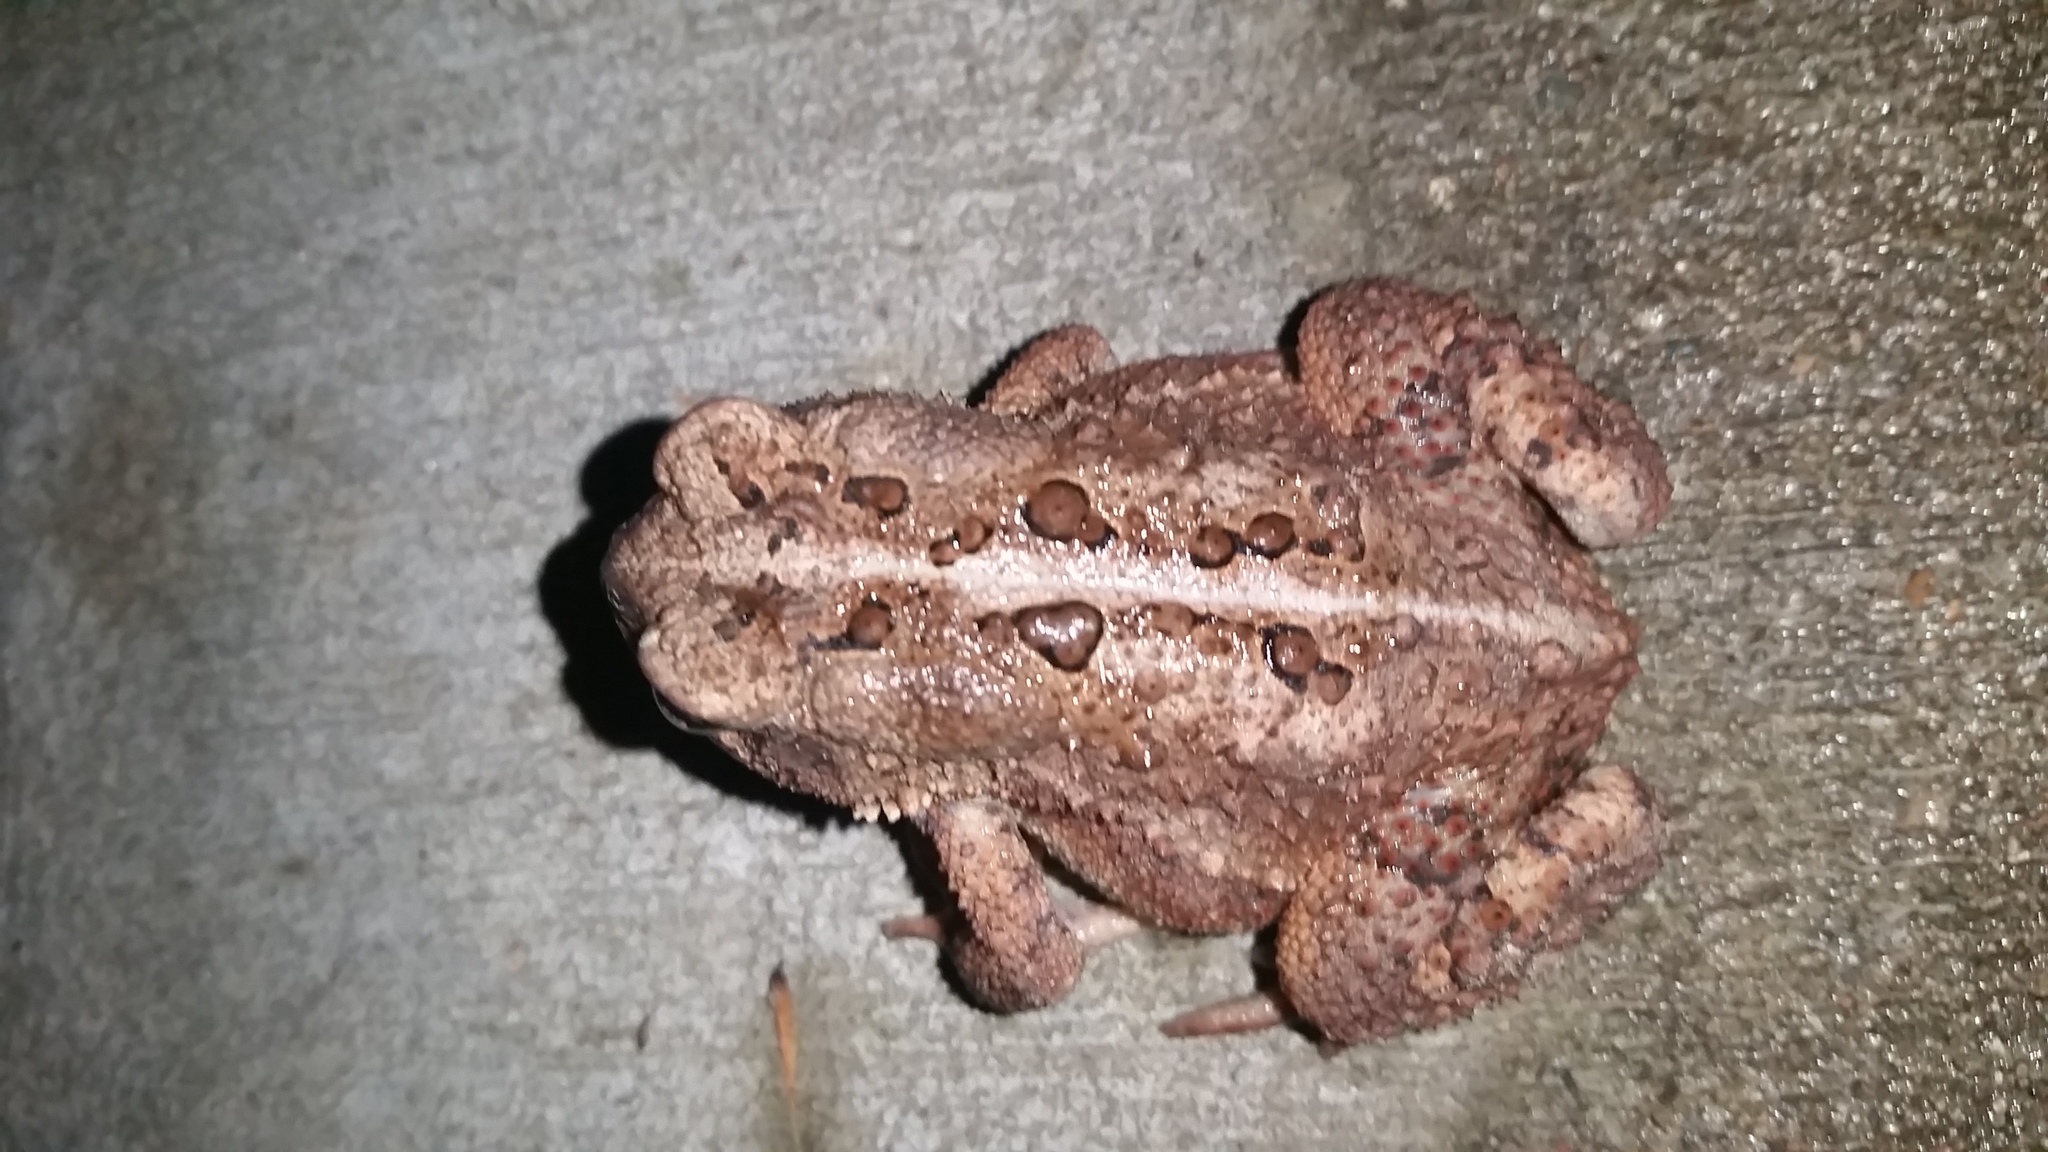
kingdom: Animalia
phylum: Chordata
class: Amphibia
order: Anura
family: Bufonidae
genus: Anaxyrus
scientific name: Anaxyrus americanus
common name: American toad
